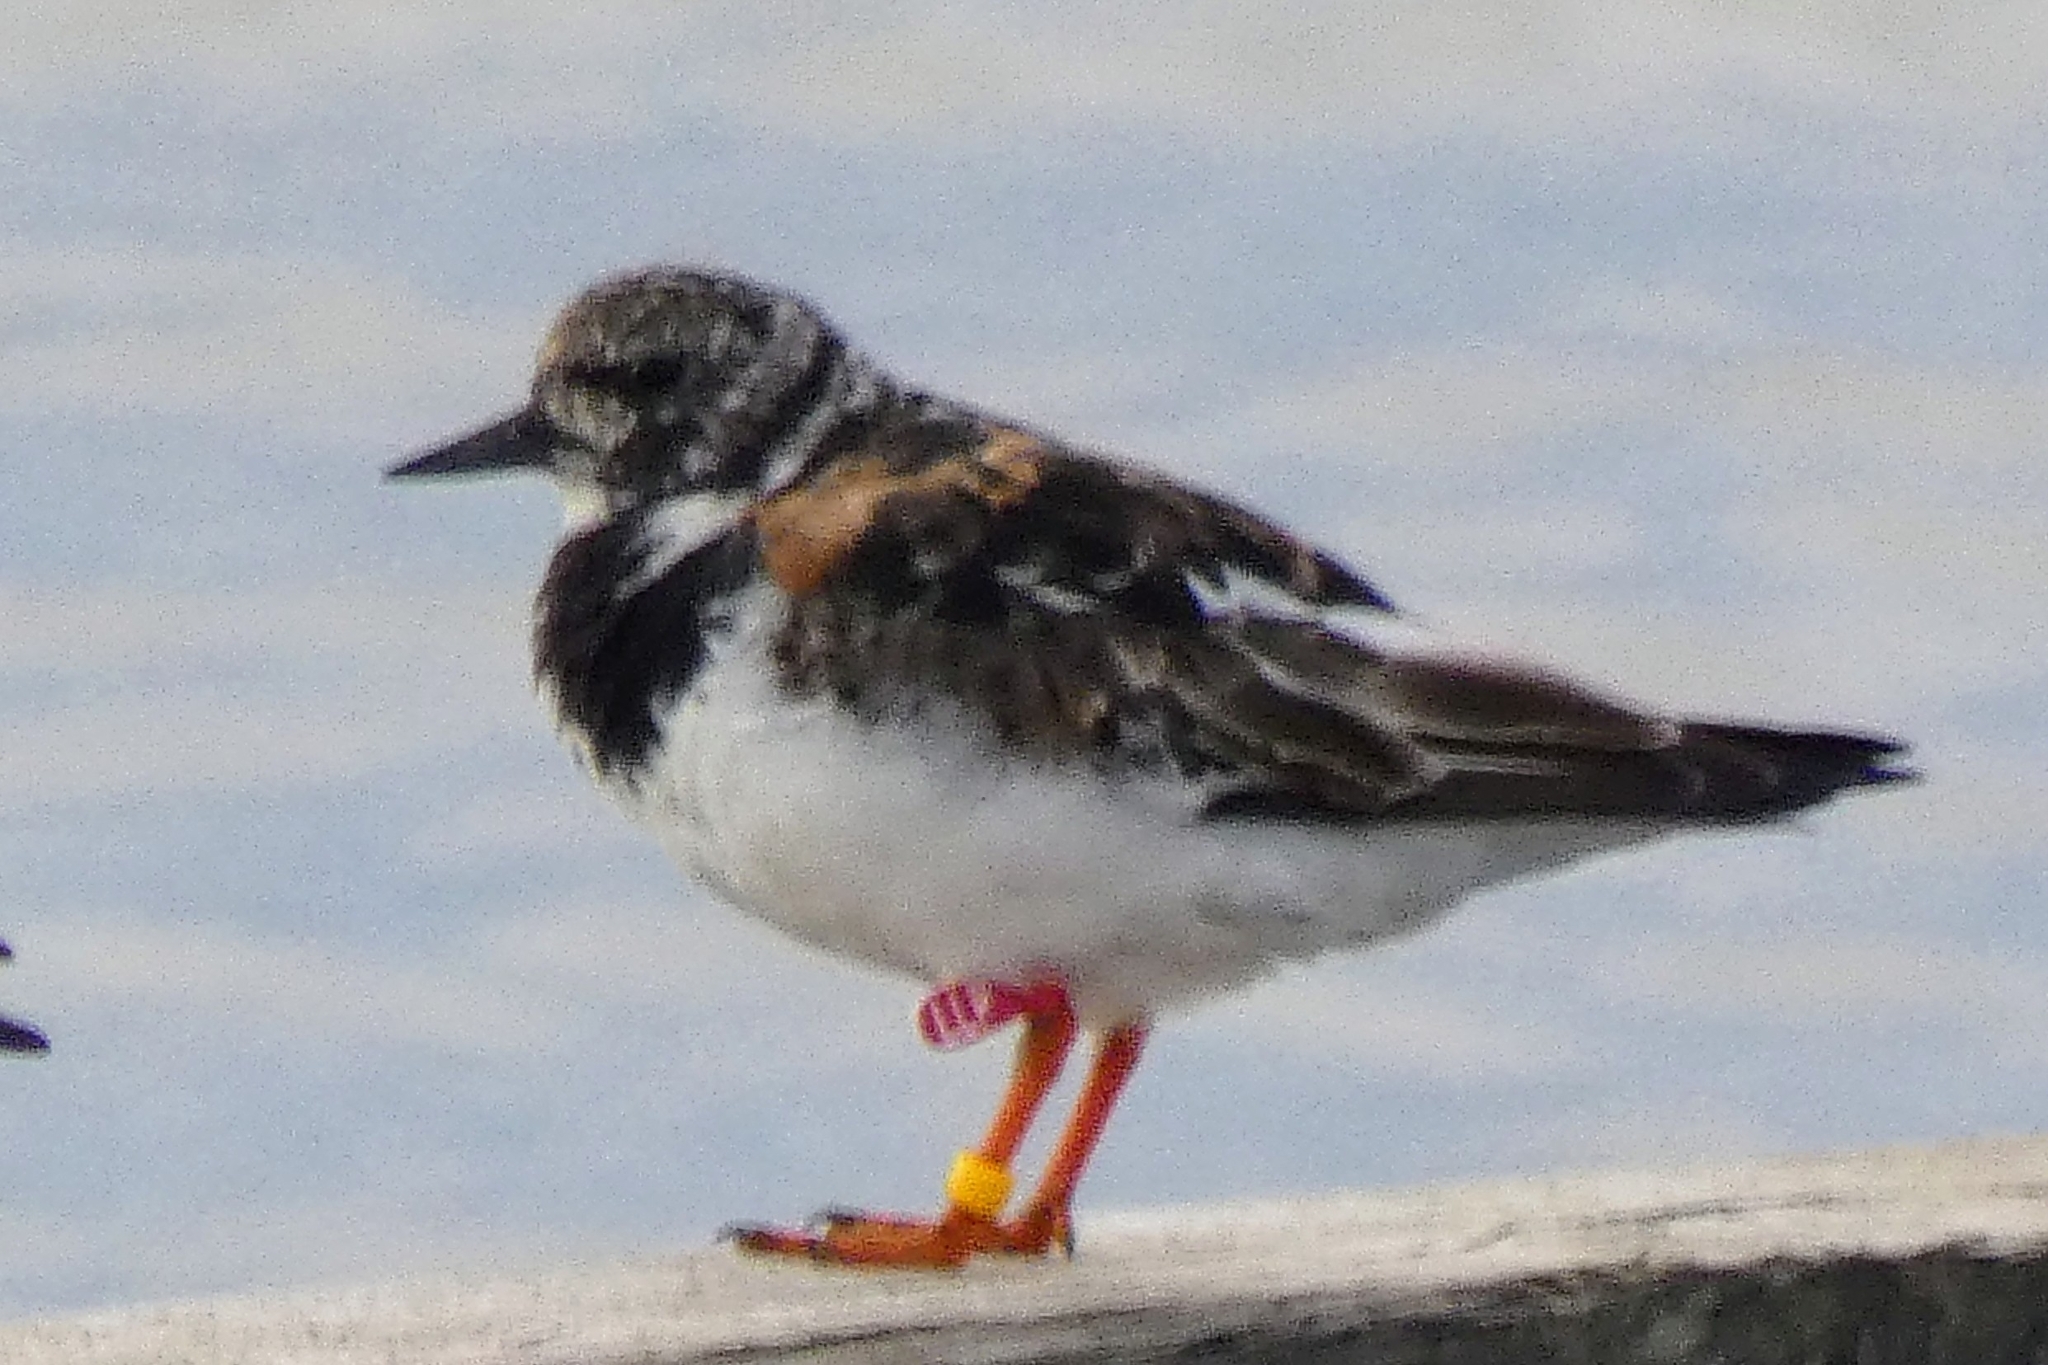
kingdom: Animalia
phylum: Chordata
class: Aves
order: Charadriiformes
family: Scolopacidae
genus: Arenaria
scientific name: Arenaria interpres
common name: Ruddy turnstone
